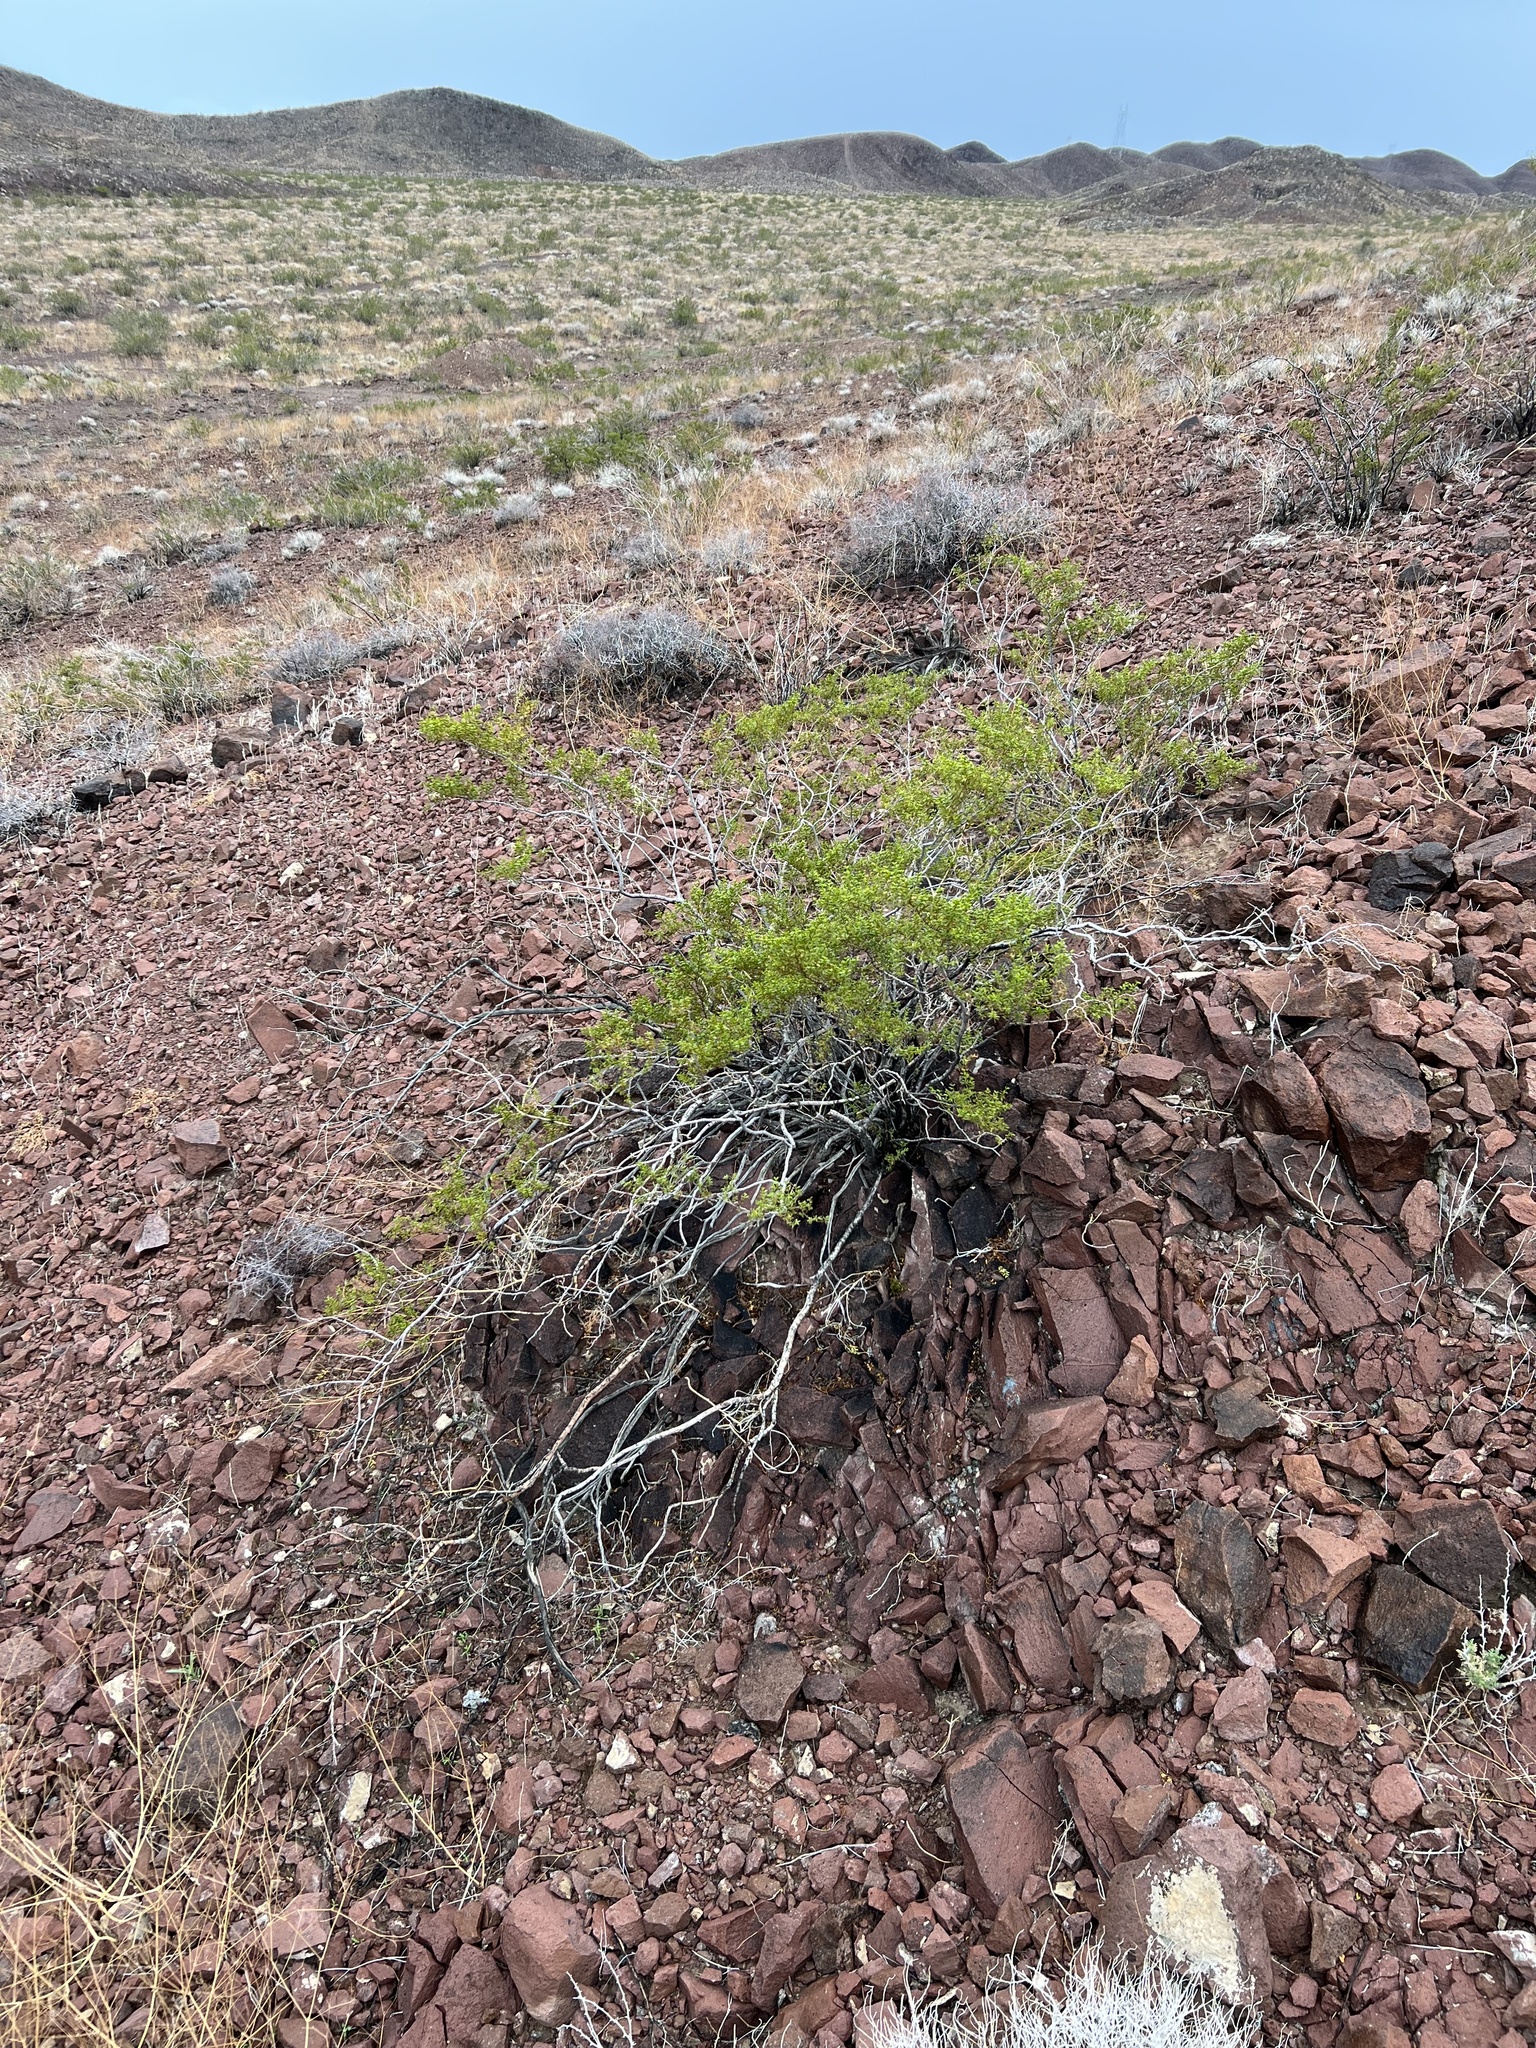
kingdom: Plantae
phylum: Tracheophyta
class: Magnoliopsida
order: Zygophyllales
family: Zygophyllaceae
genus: Larrea
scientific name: Larrea tridentata
